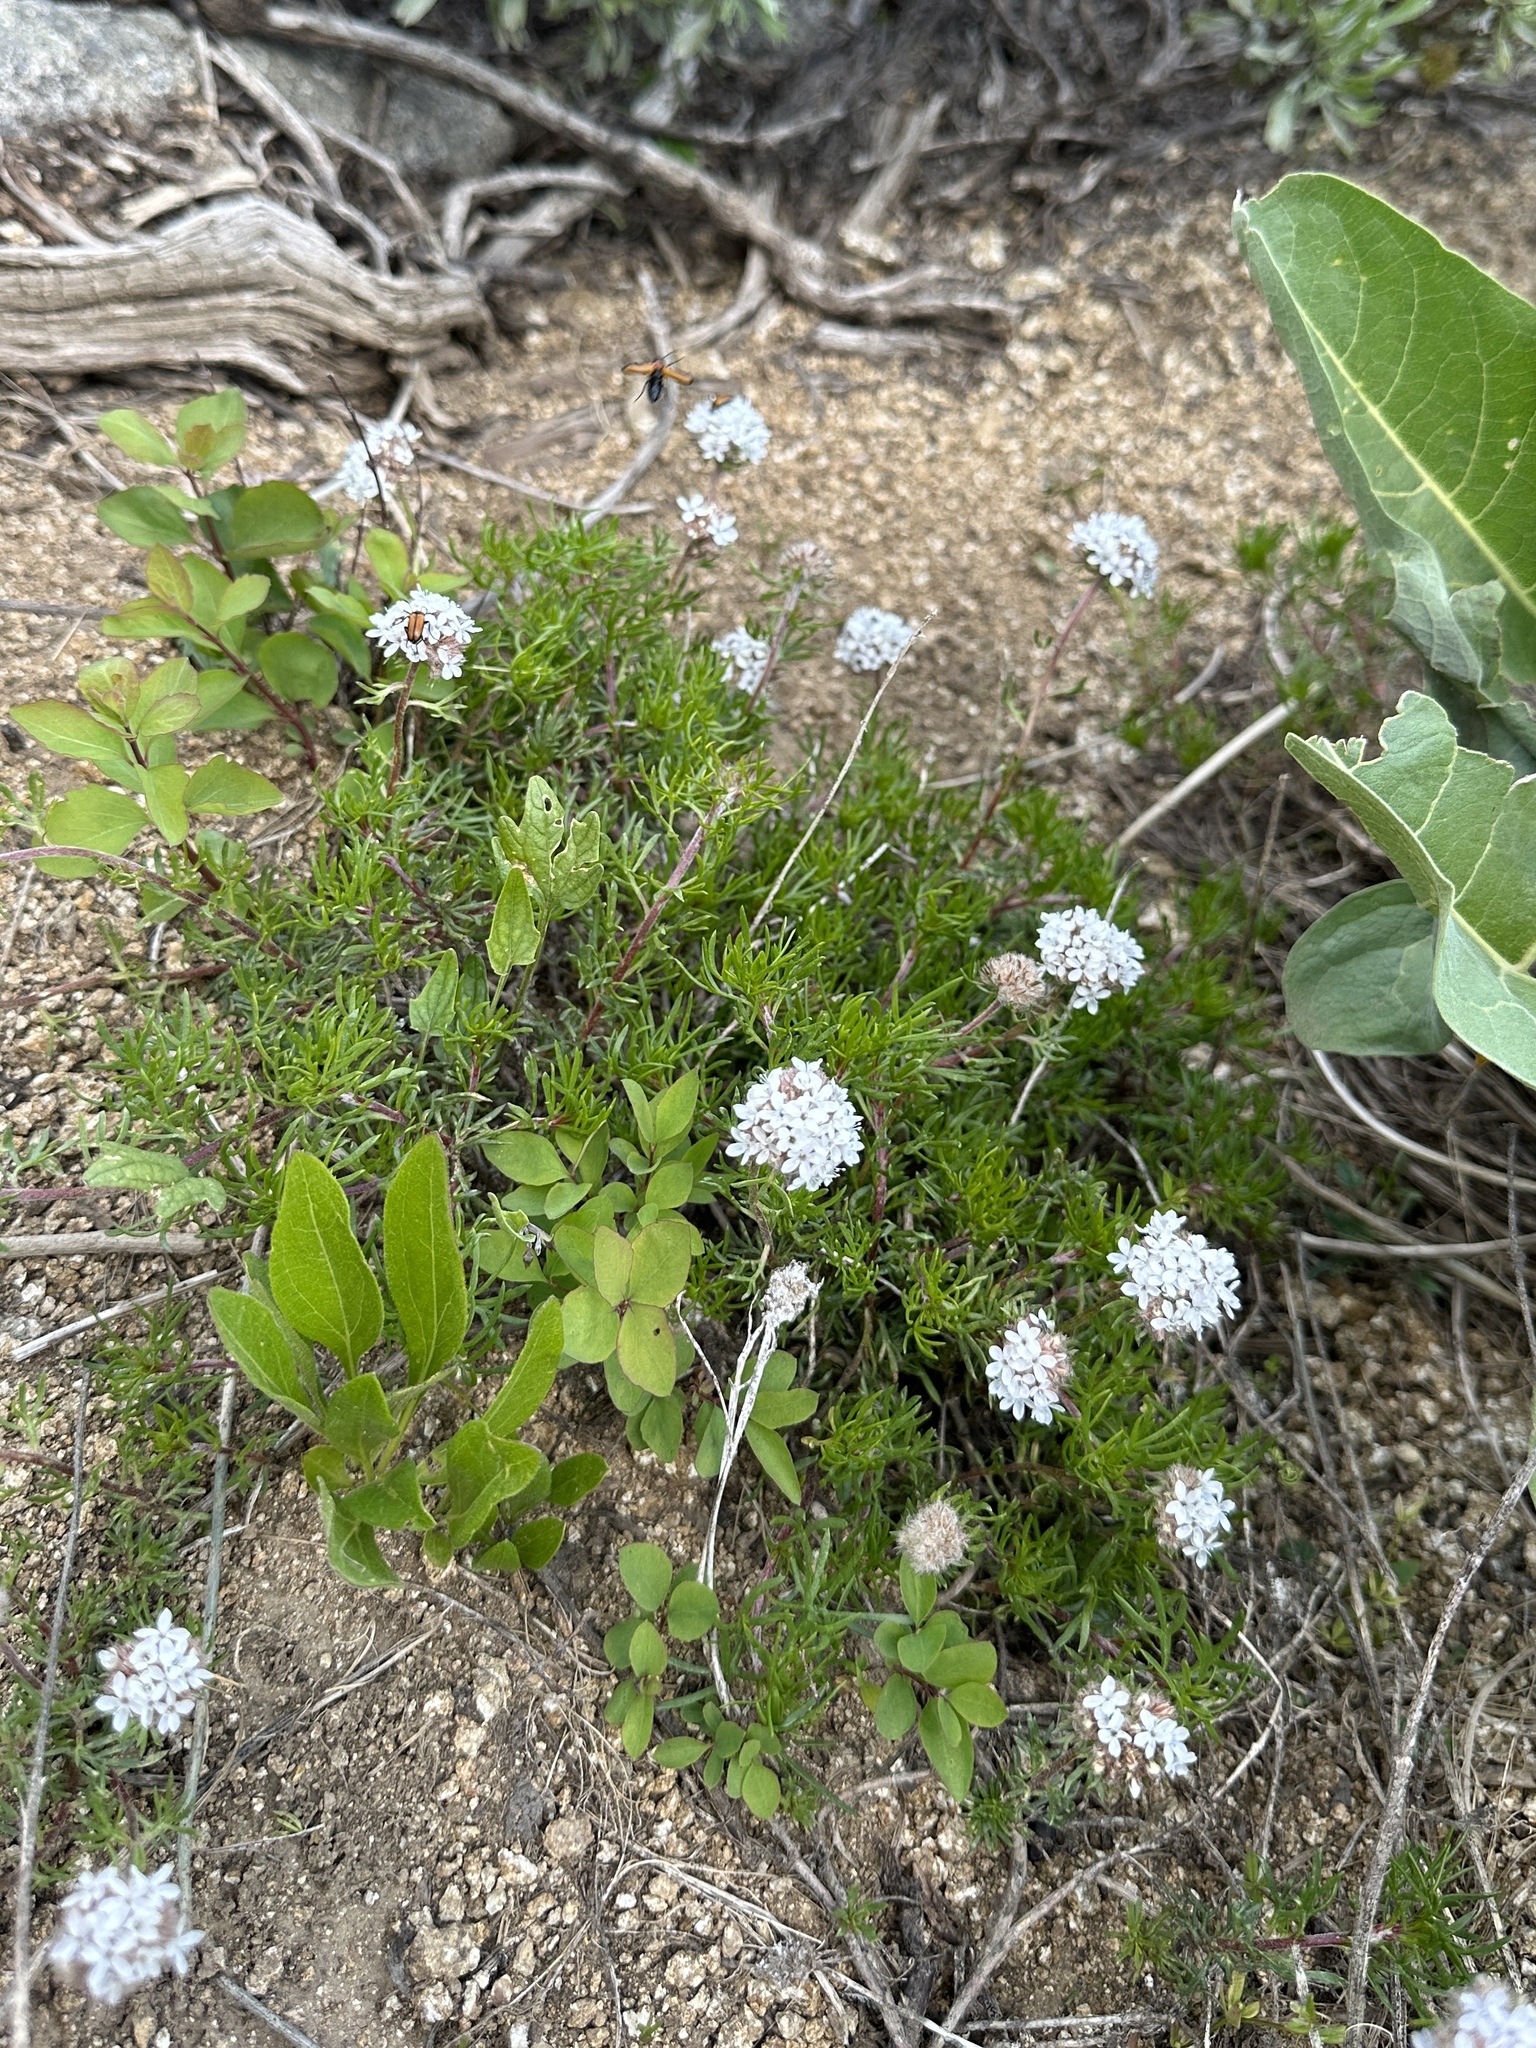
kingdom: Plantae
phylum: Tracheophyta
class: Magnoliopsida
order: Ericales
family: Polemoniaceae
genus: Ipomopsis
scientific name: Ipomopsis congesta
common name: Ball-head gilia
